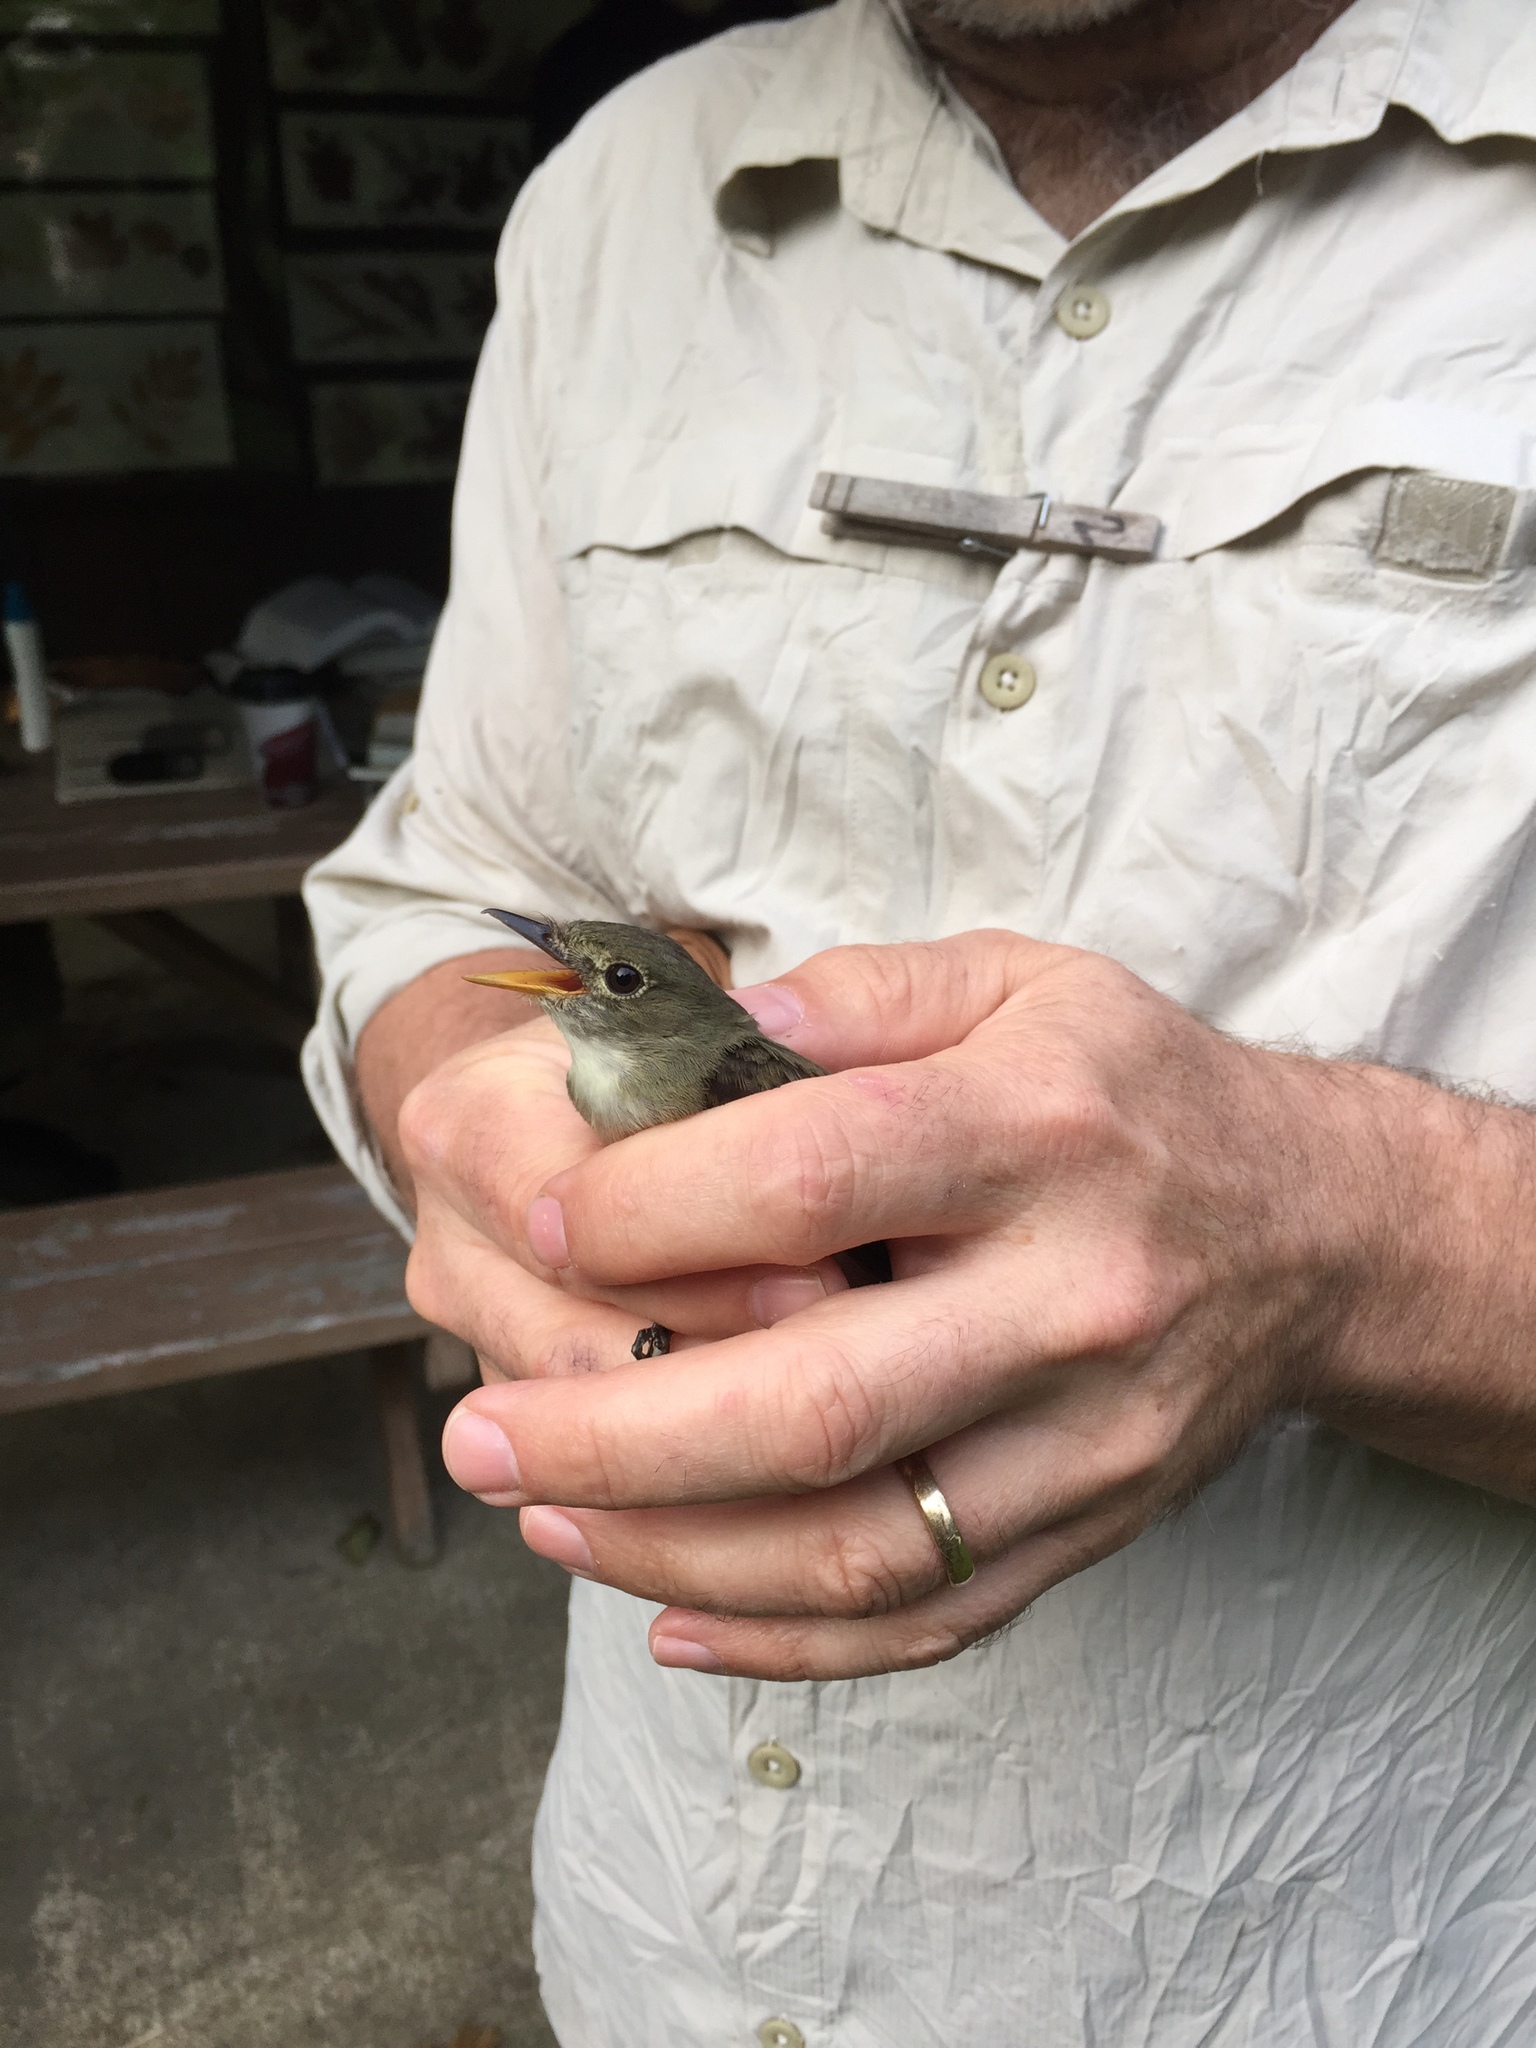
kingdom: Animalia
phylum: Chordata
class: Aves
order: Passeriformes
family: Tyrannidae
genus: Empidonax
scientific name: Empidonax
